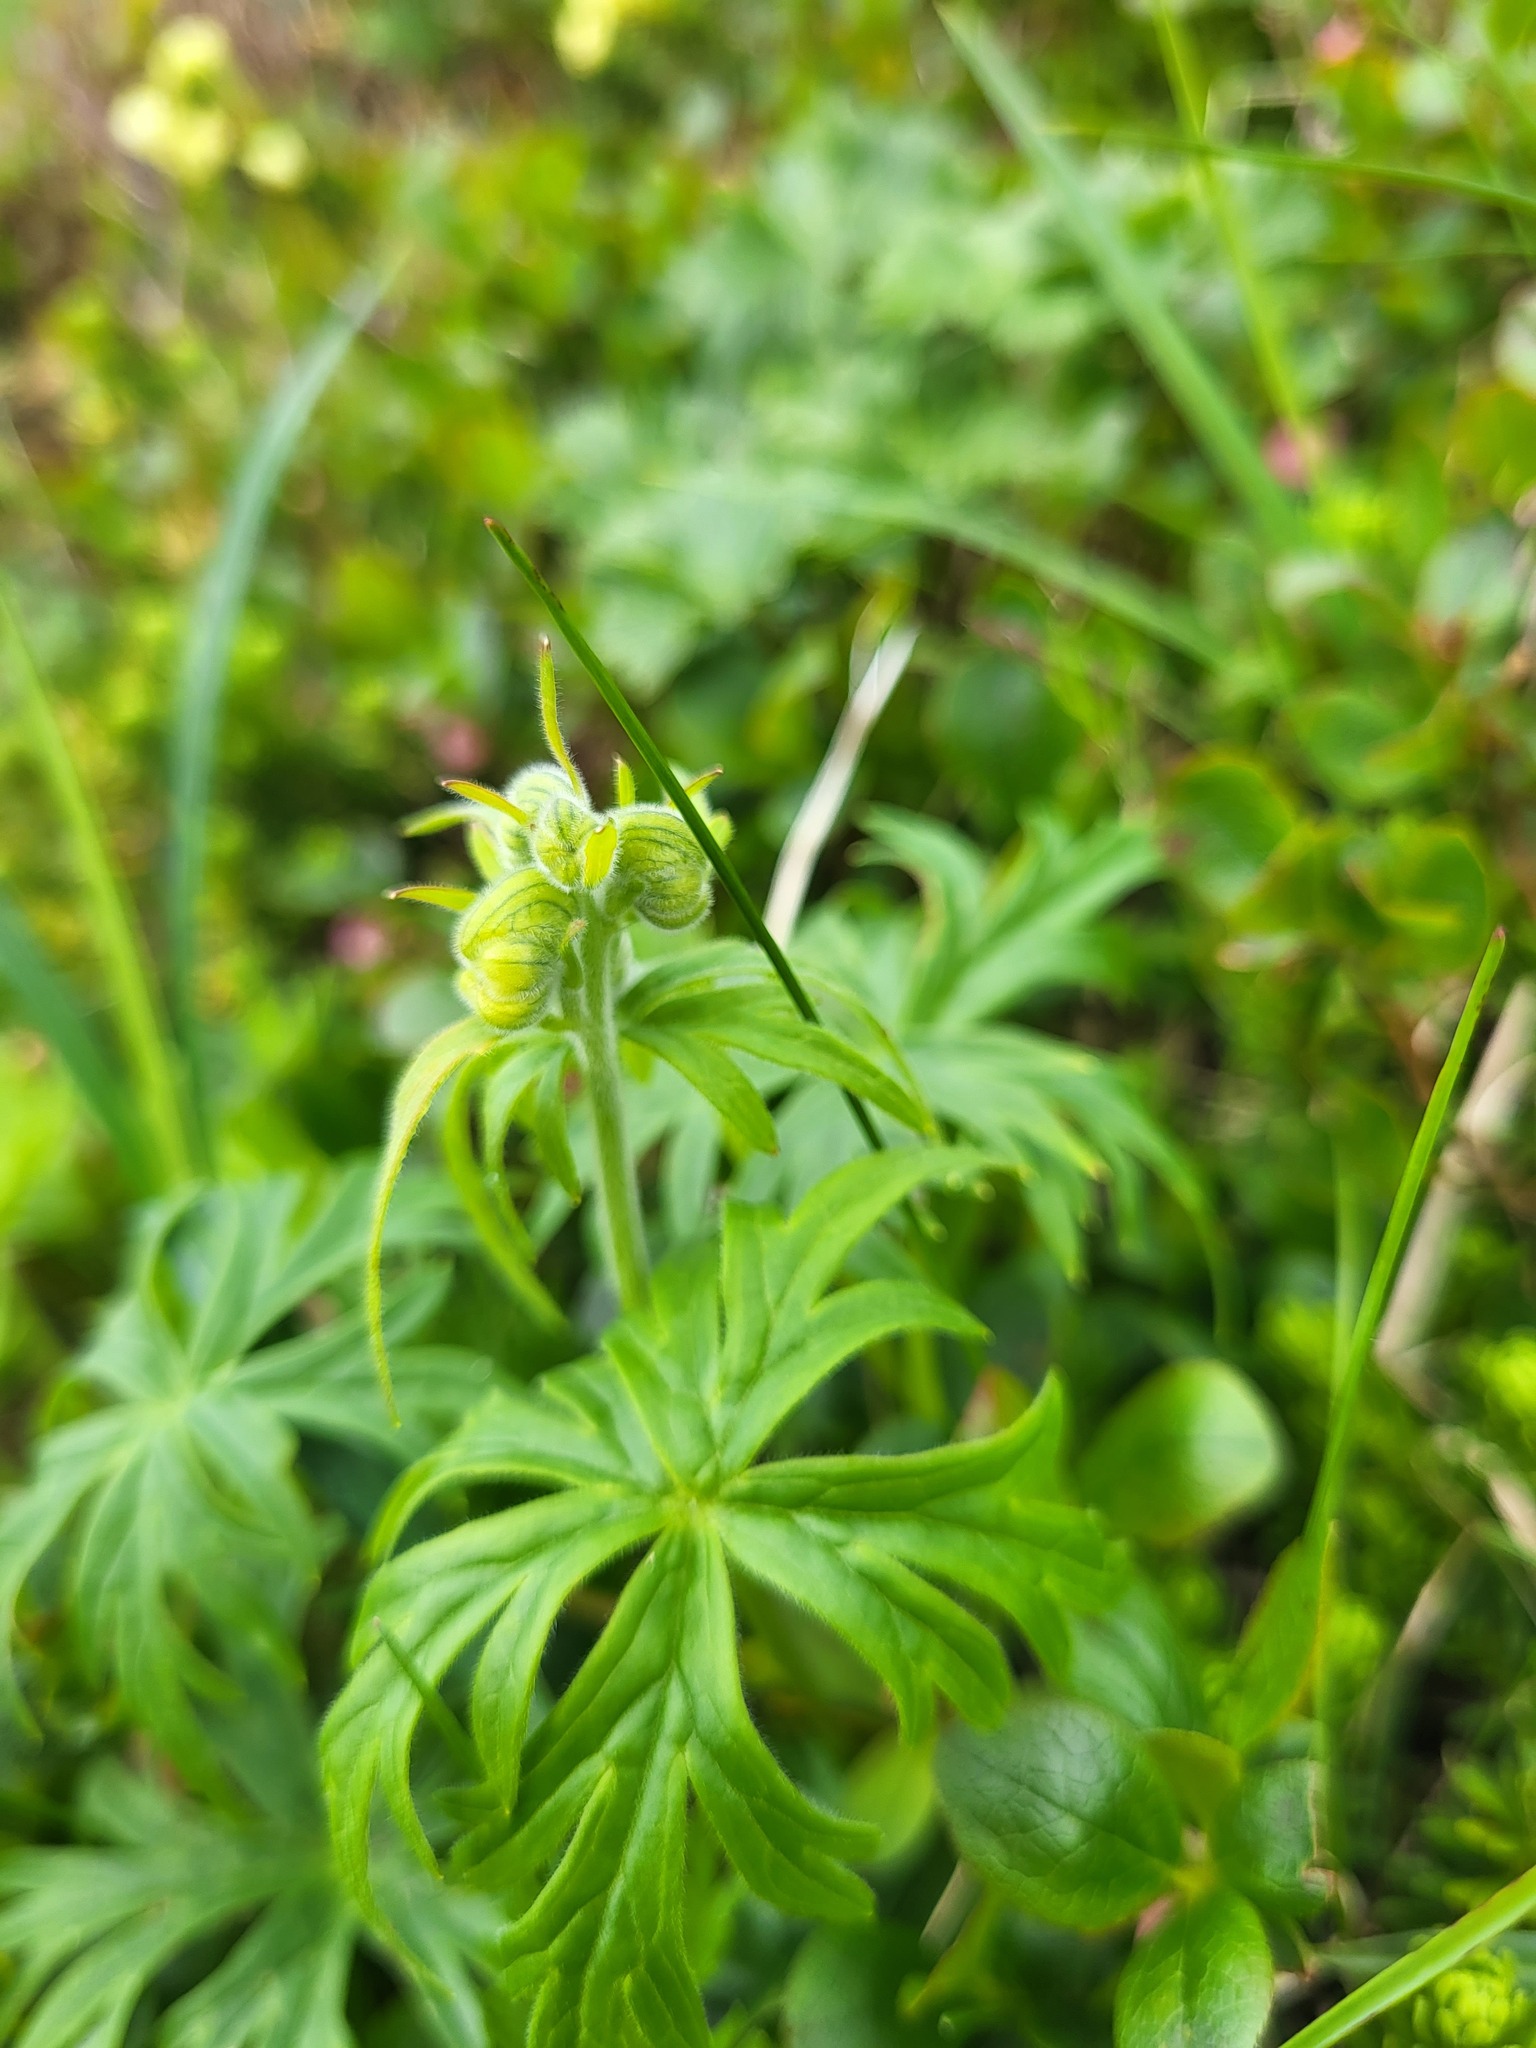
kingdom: Plantae
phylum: Tracheophyta
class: Magnoliopsida
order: Ranunculales
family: Ranunculaceae
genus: Aconitum
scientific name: Aconitum delphiniifolium
